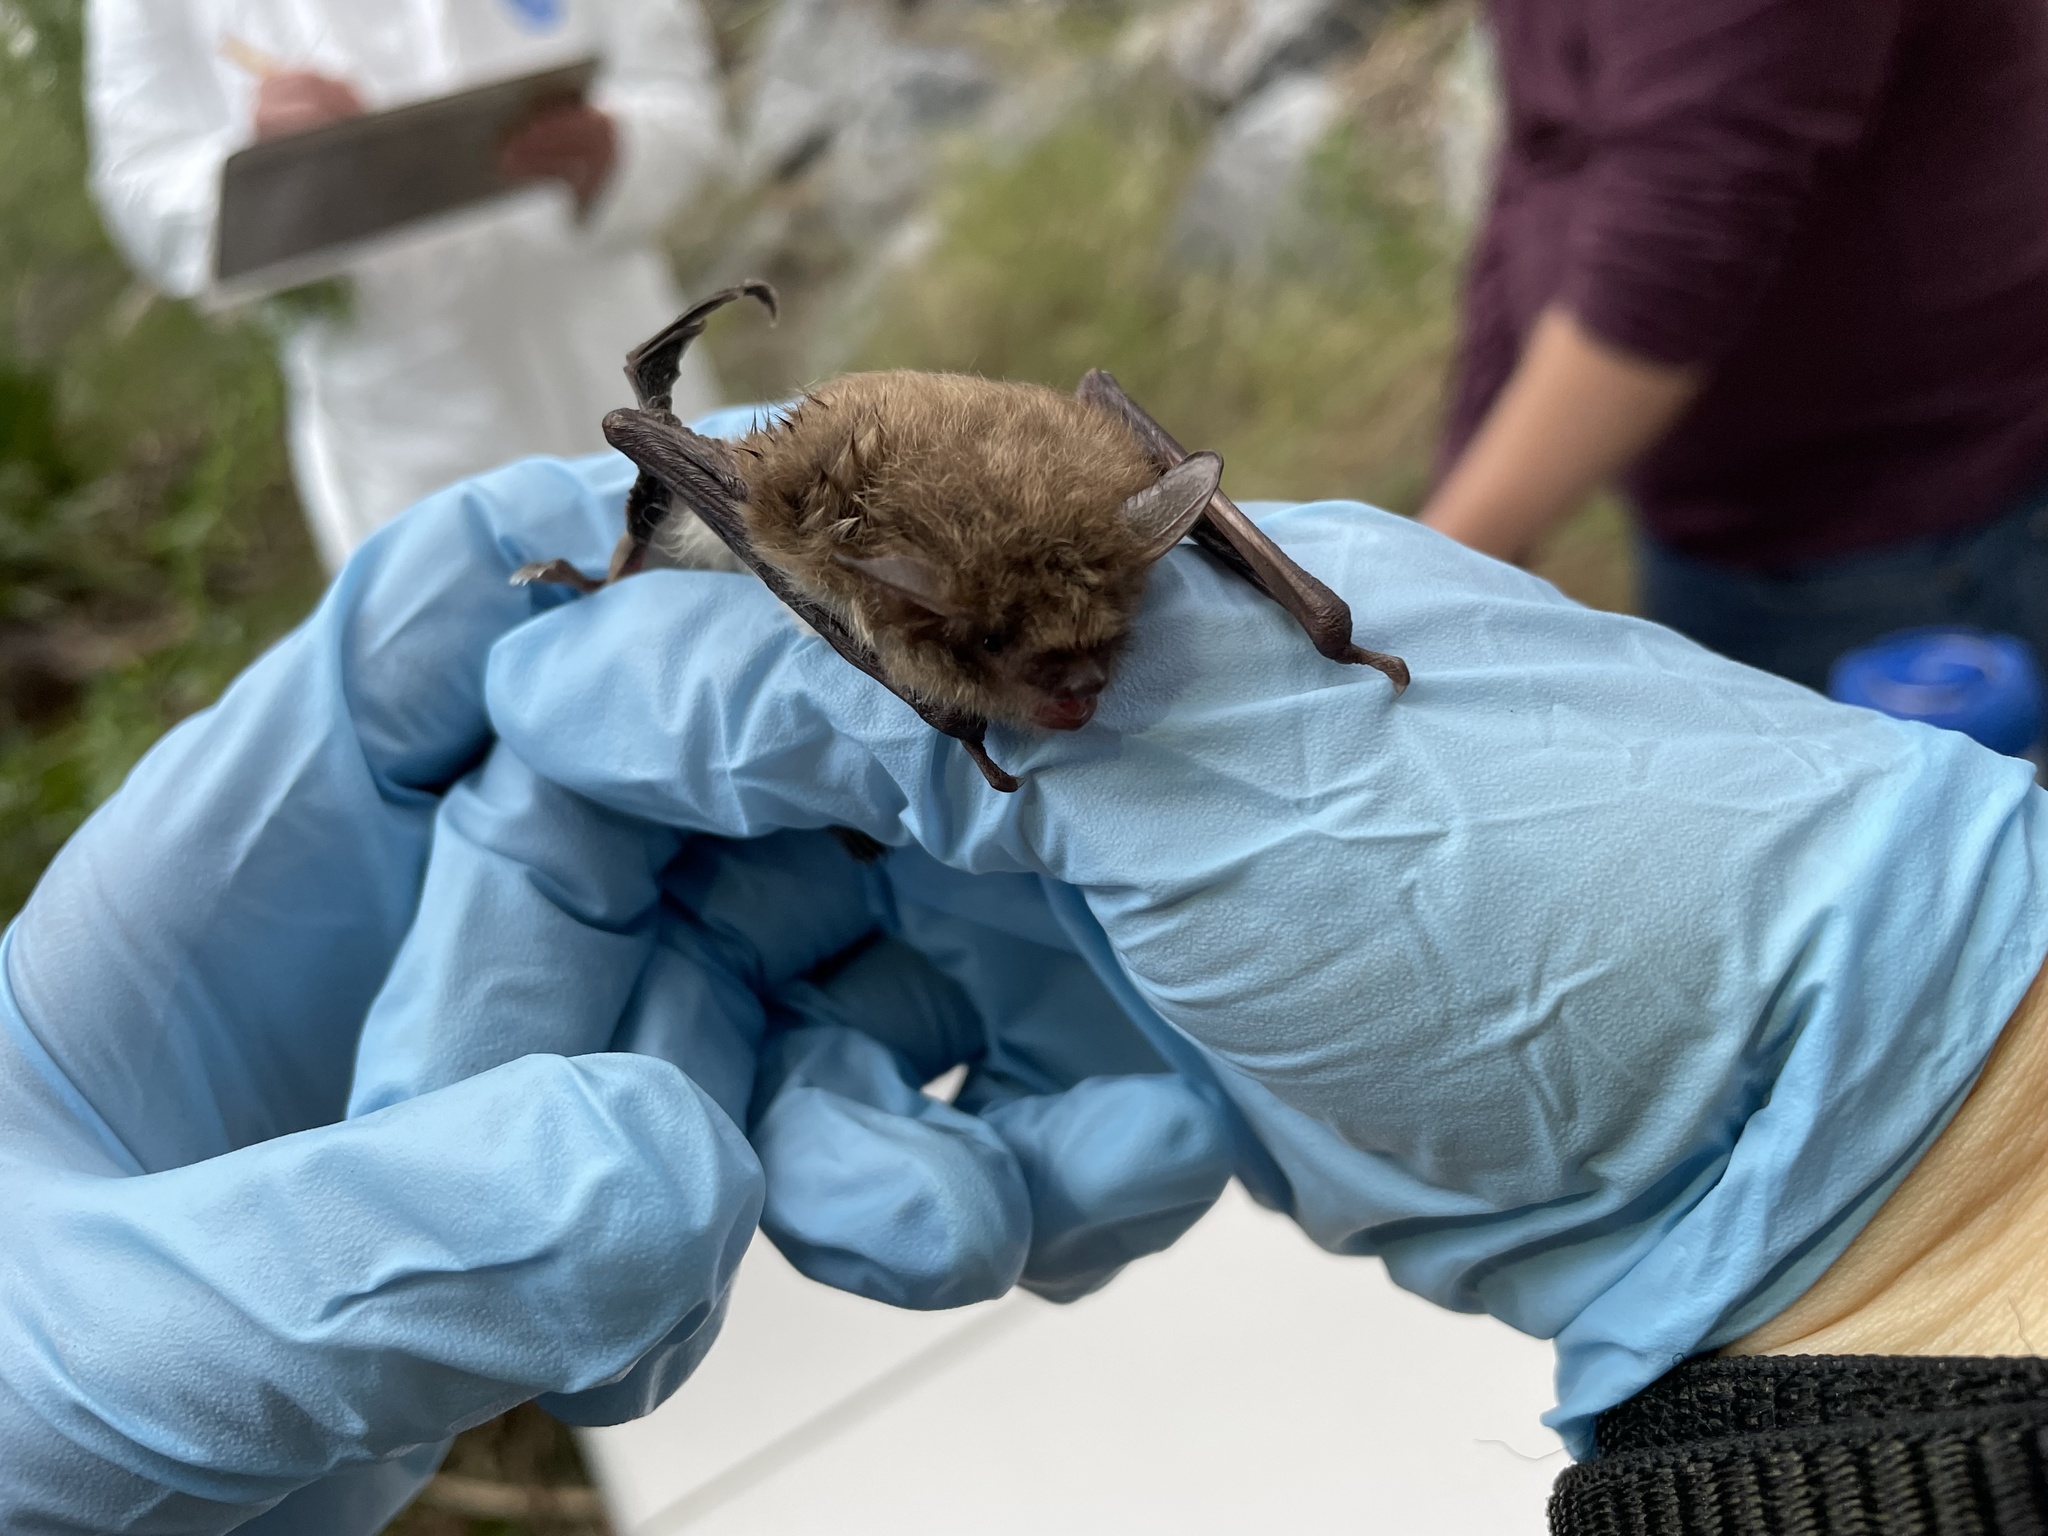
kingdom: Animalia
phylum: Chordata
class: Mammalia
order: Chiroptera
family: Vespertilionidae
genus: Myotis
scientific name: Myotis yumanensis
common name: Yuma myotis
